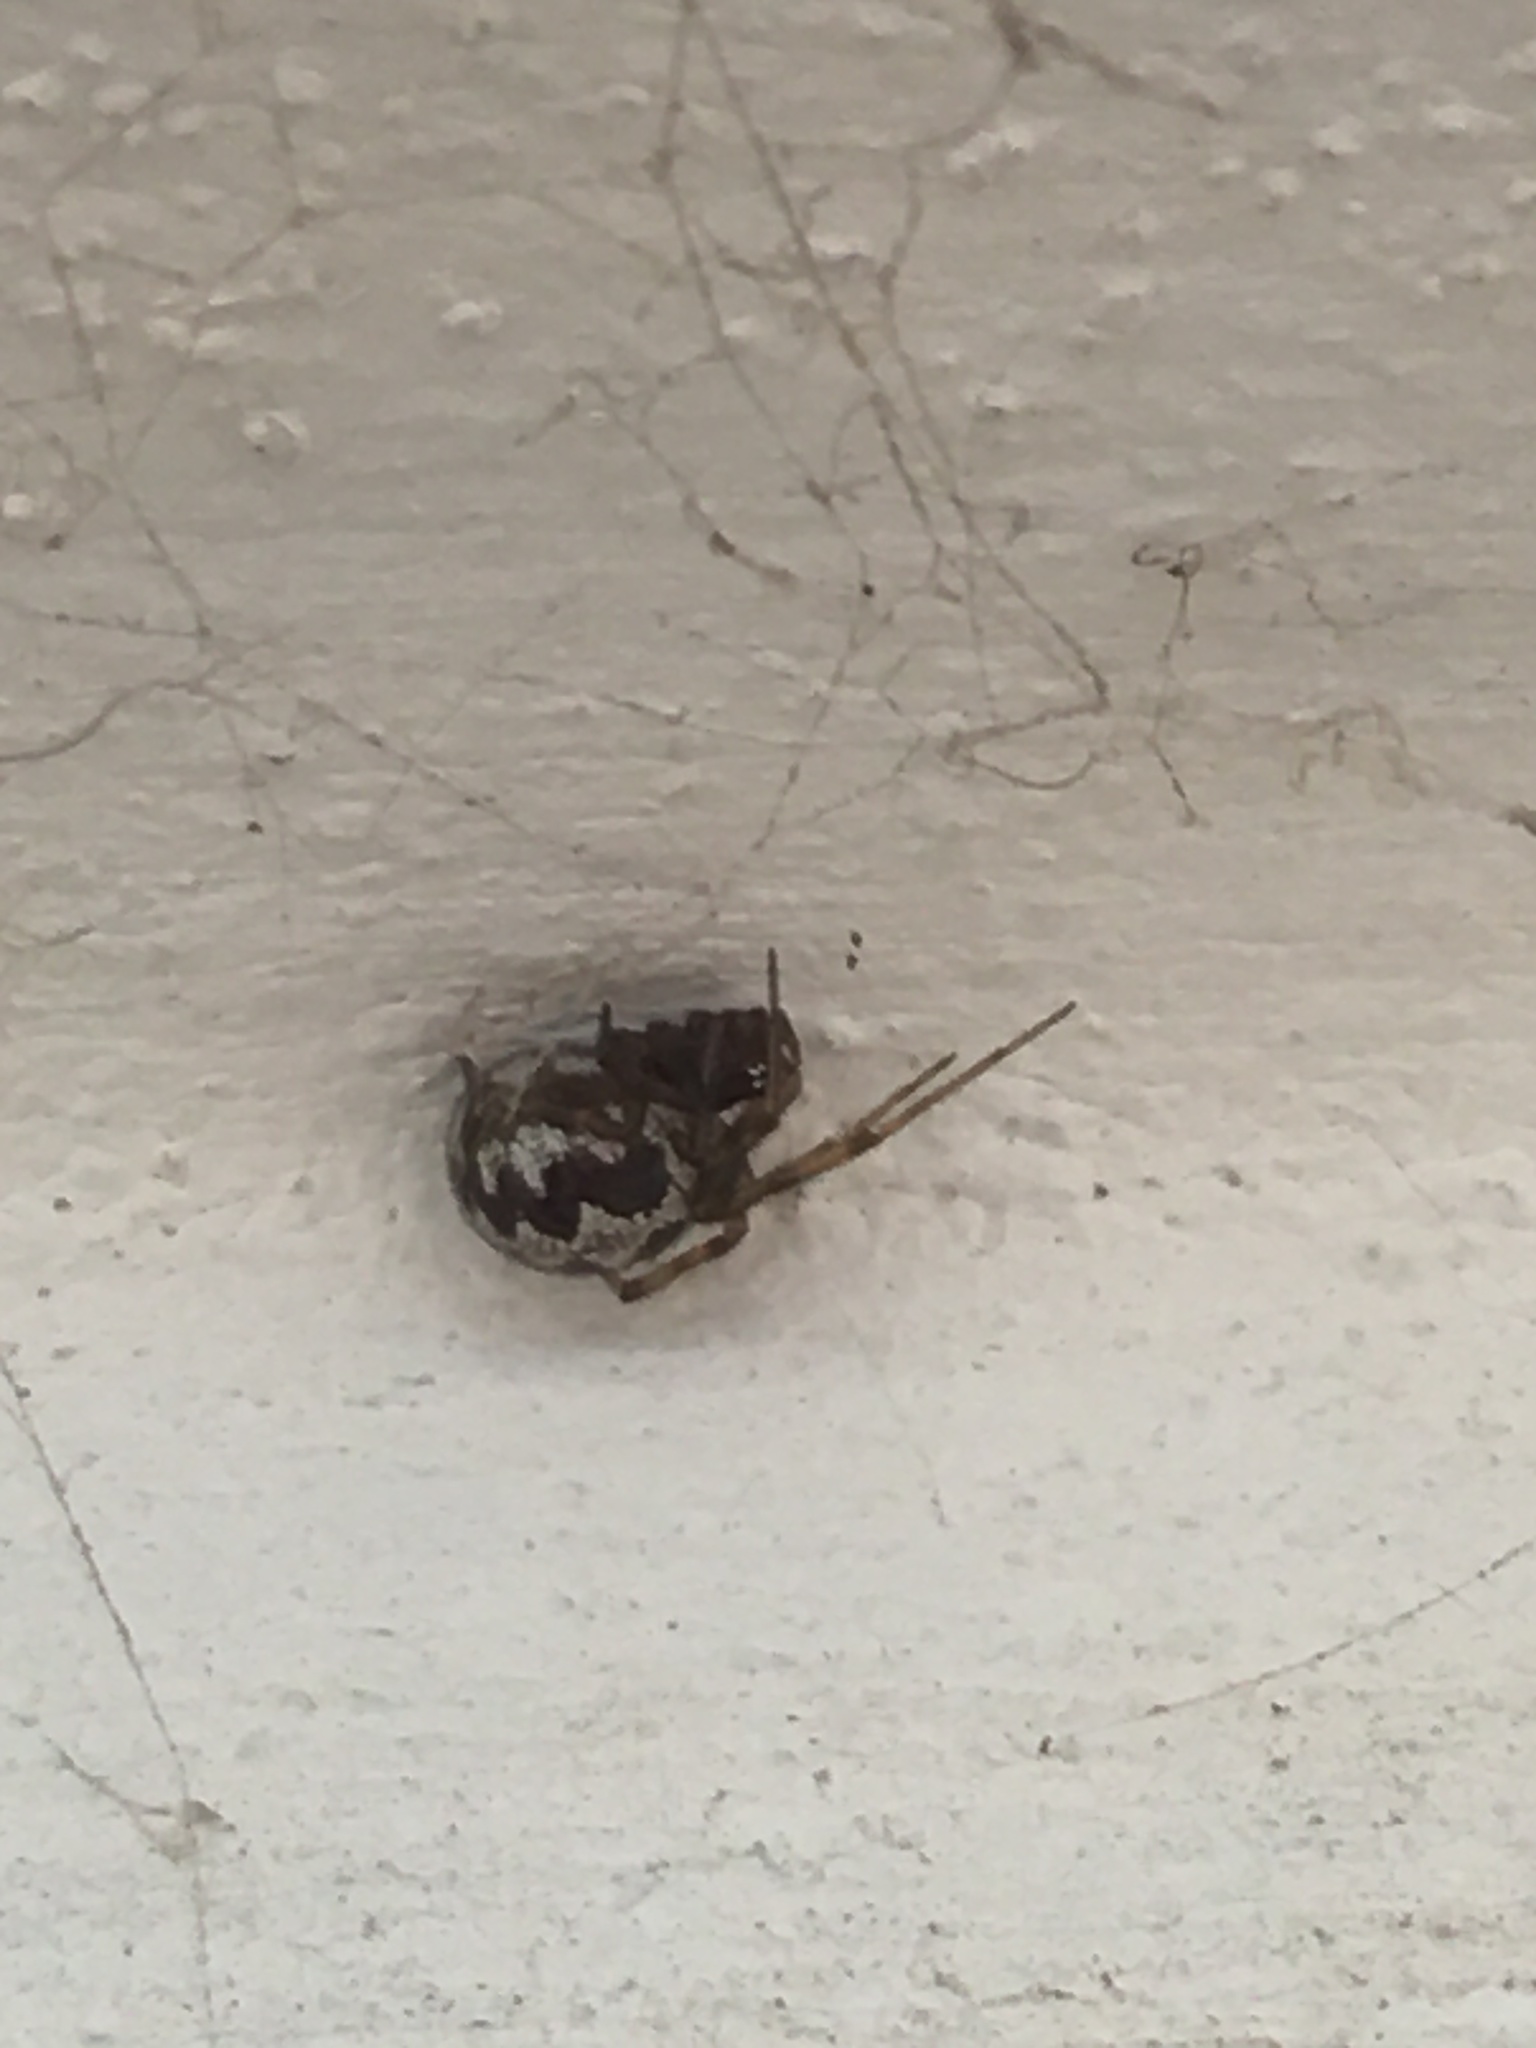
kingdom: Animalia
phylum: Arthropoda
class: Arachnida
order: Araneae
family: Theridiidae
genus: Steatoda
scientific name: Steatoda triangulosa
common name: Triangulate bud spider
